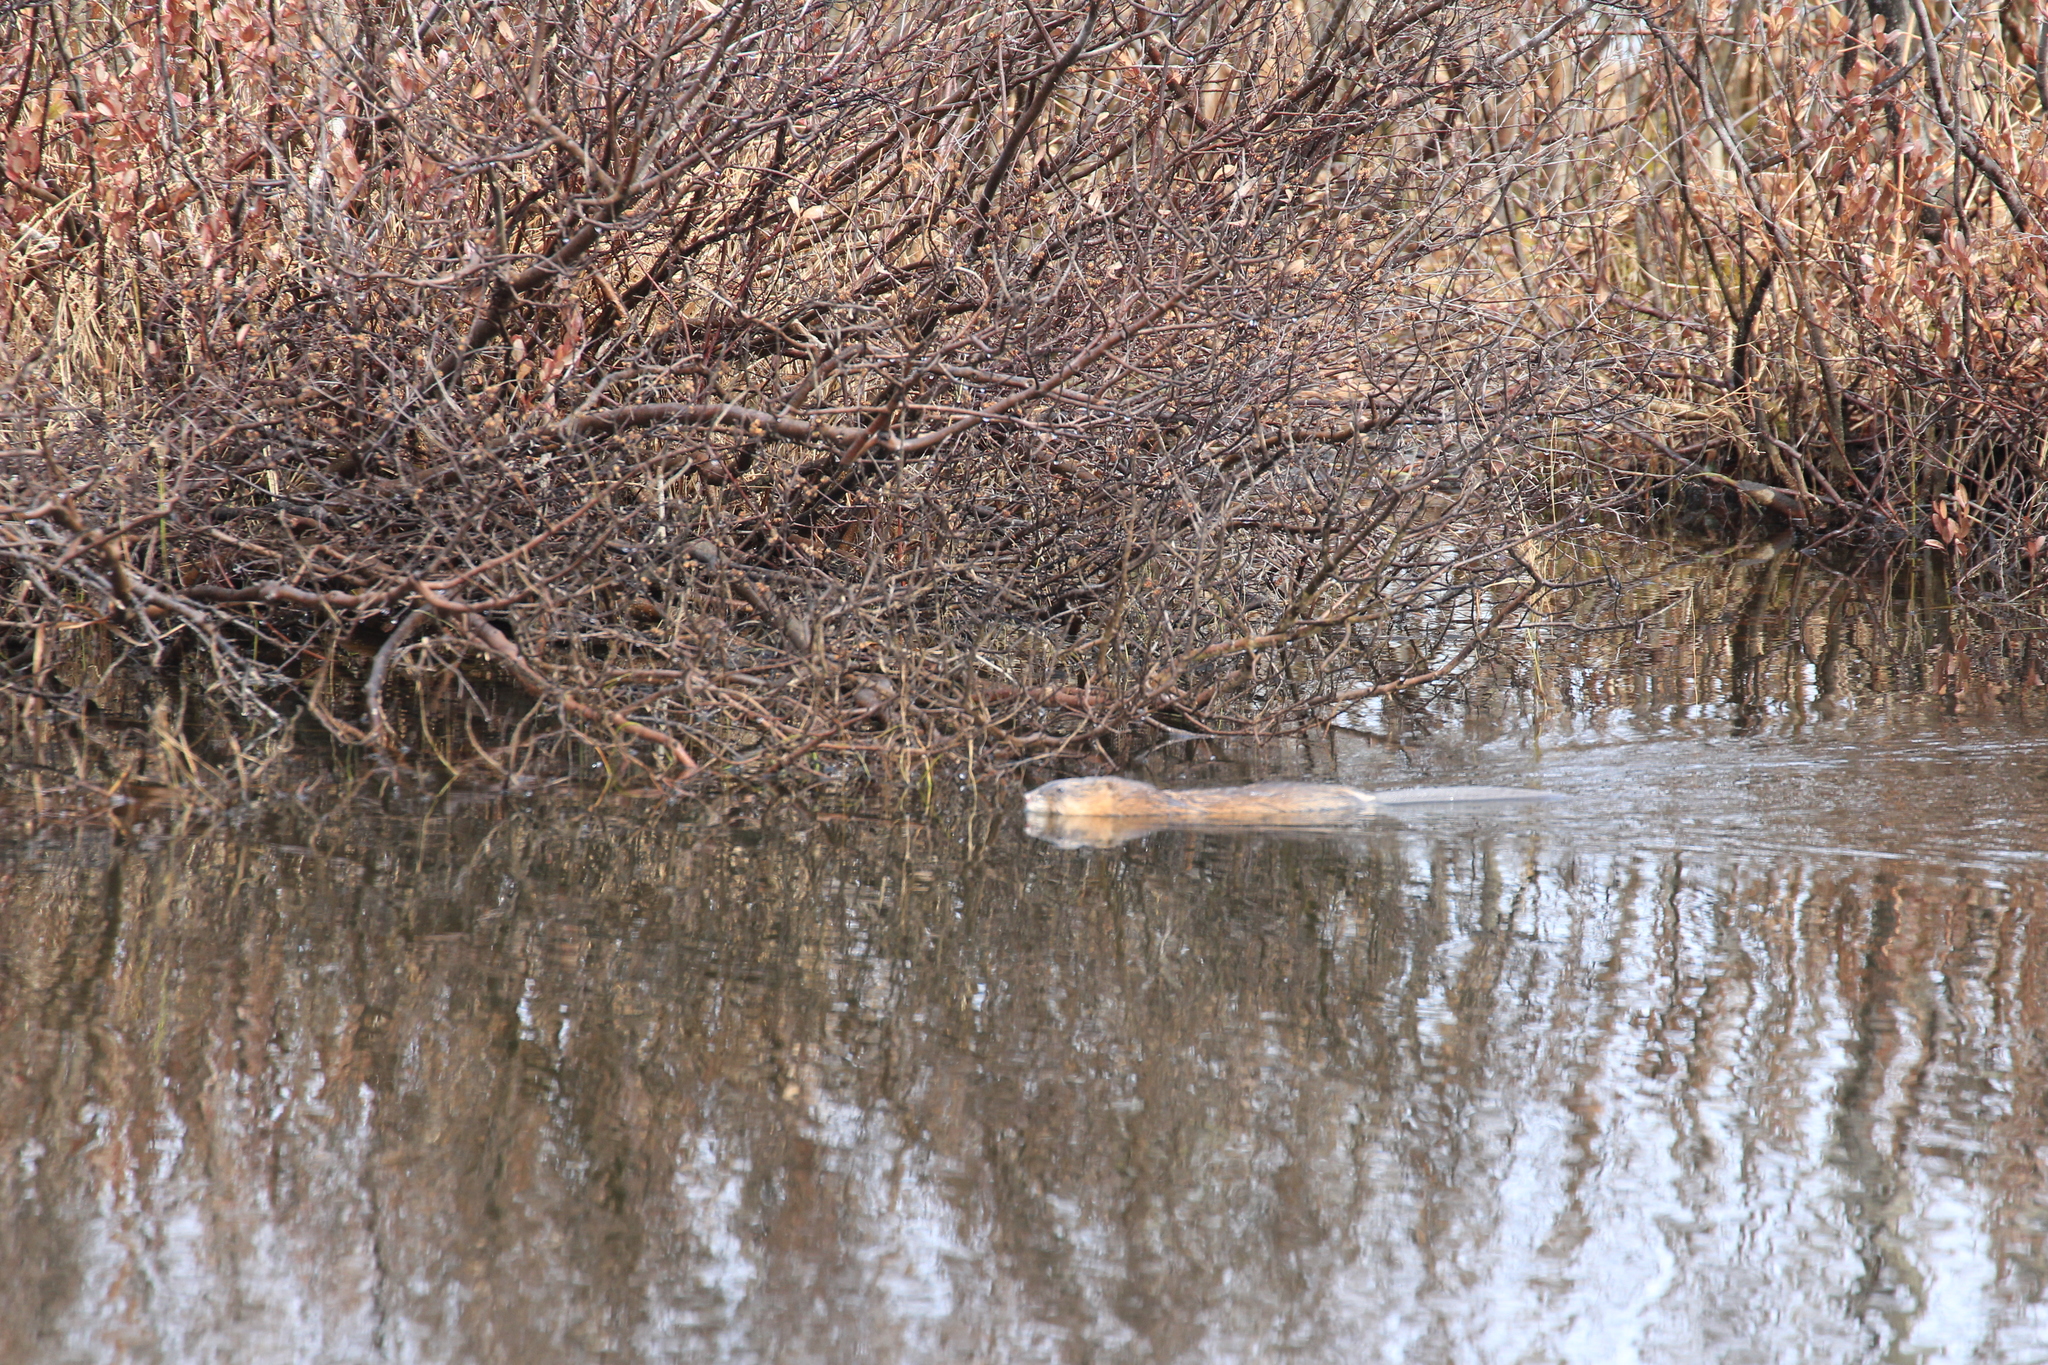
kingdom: Animalia
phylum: Chordata
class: Mammalia
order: Rodentia
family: Cricetidae
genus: Ondatra
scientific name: Ondatra zibethicus
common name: Muskrat
